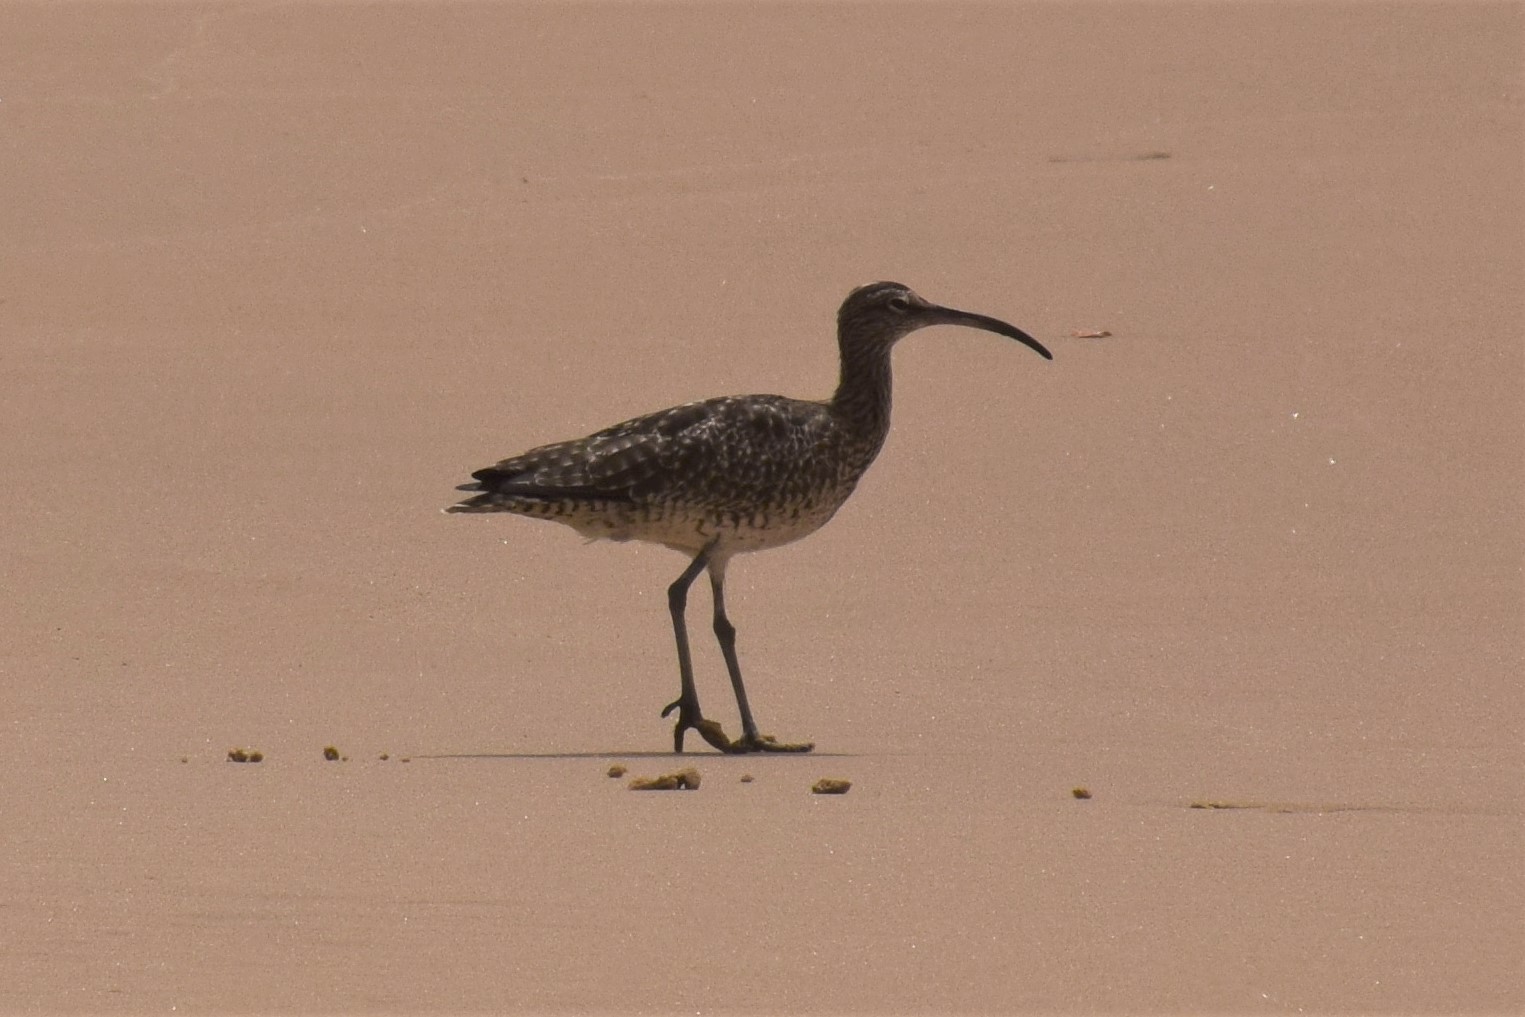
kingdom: Animalia
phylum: Chordata
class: Aves
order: Charadriiformes
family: Scolopacidae
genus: Numenius
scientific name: Numenius phaeopus
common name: Whimbrel
